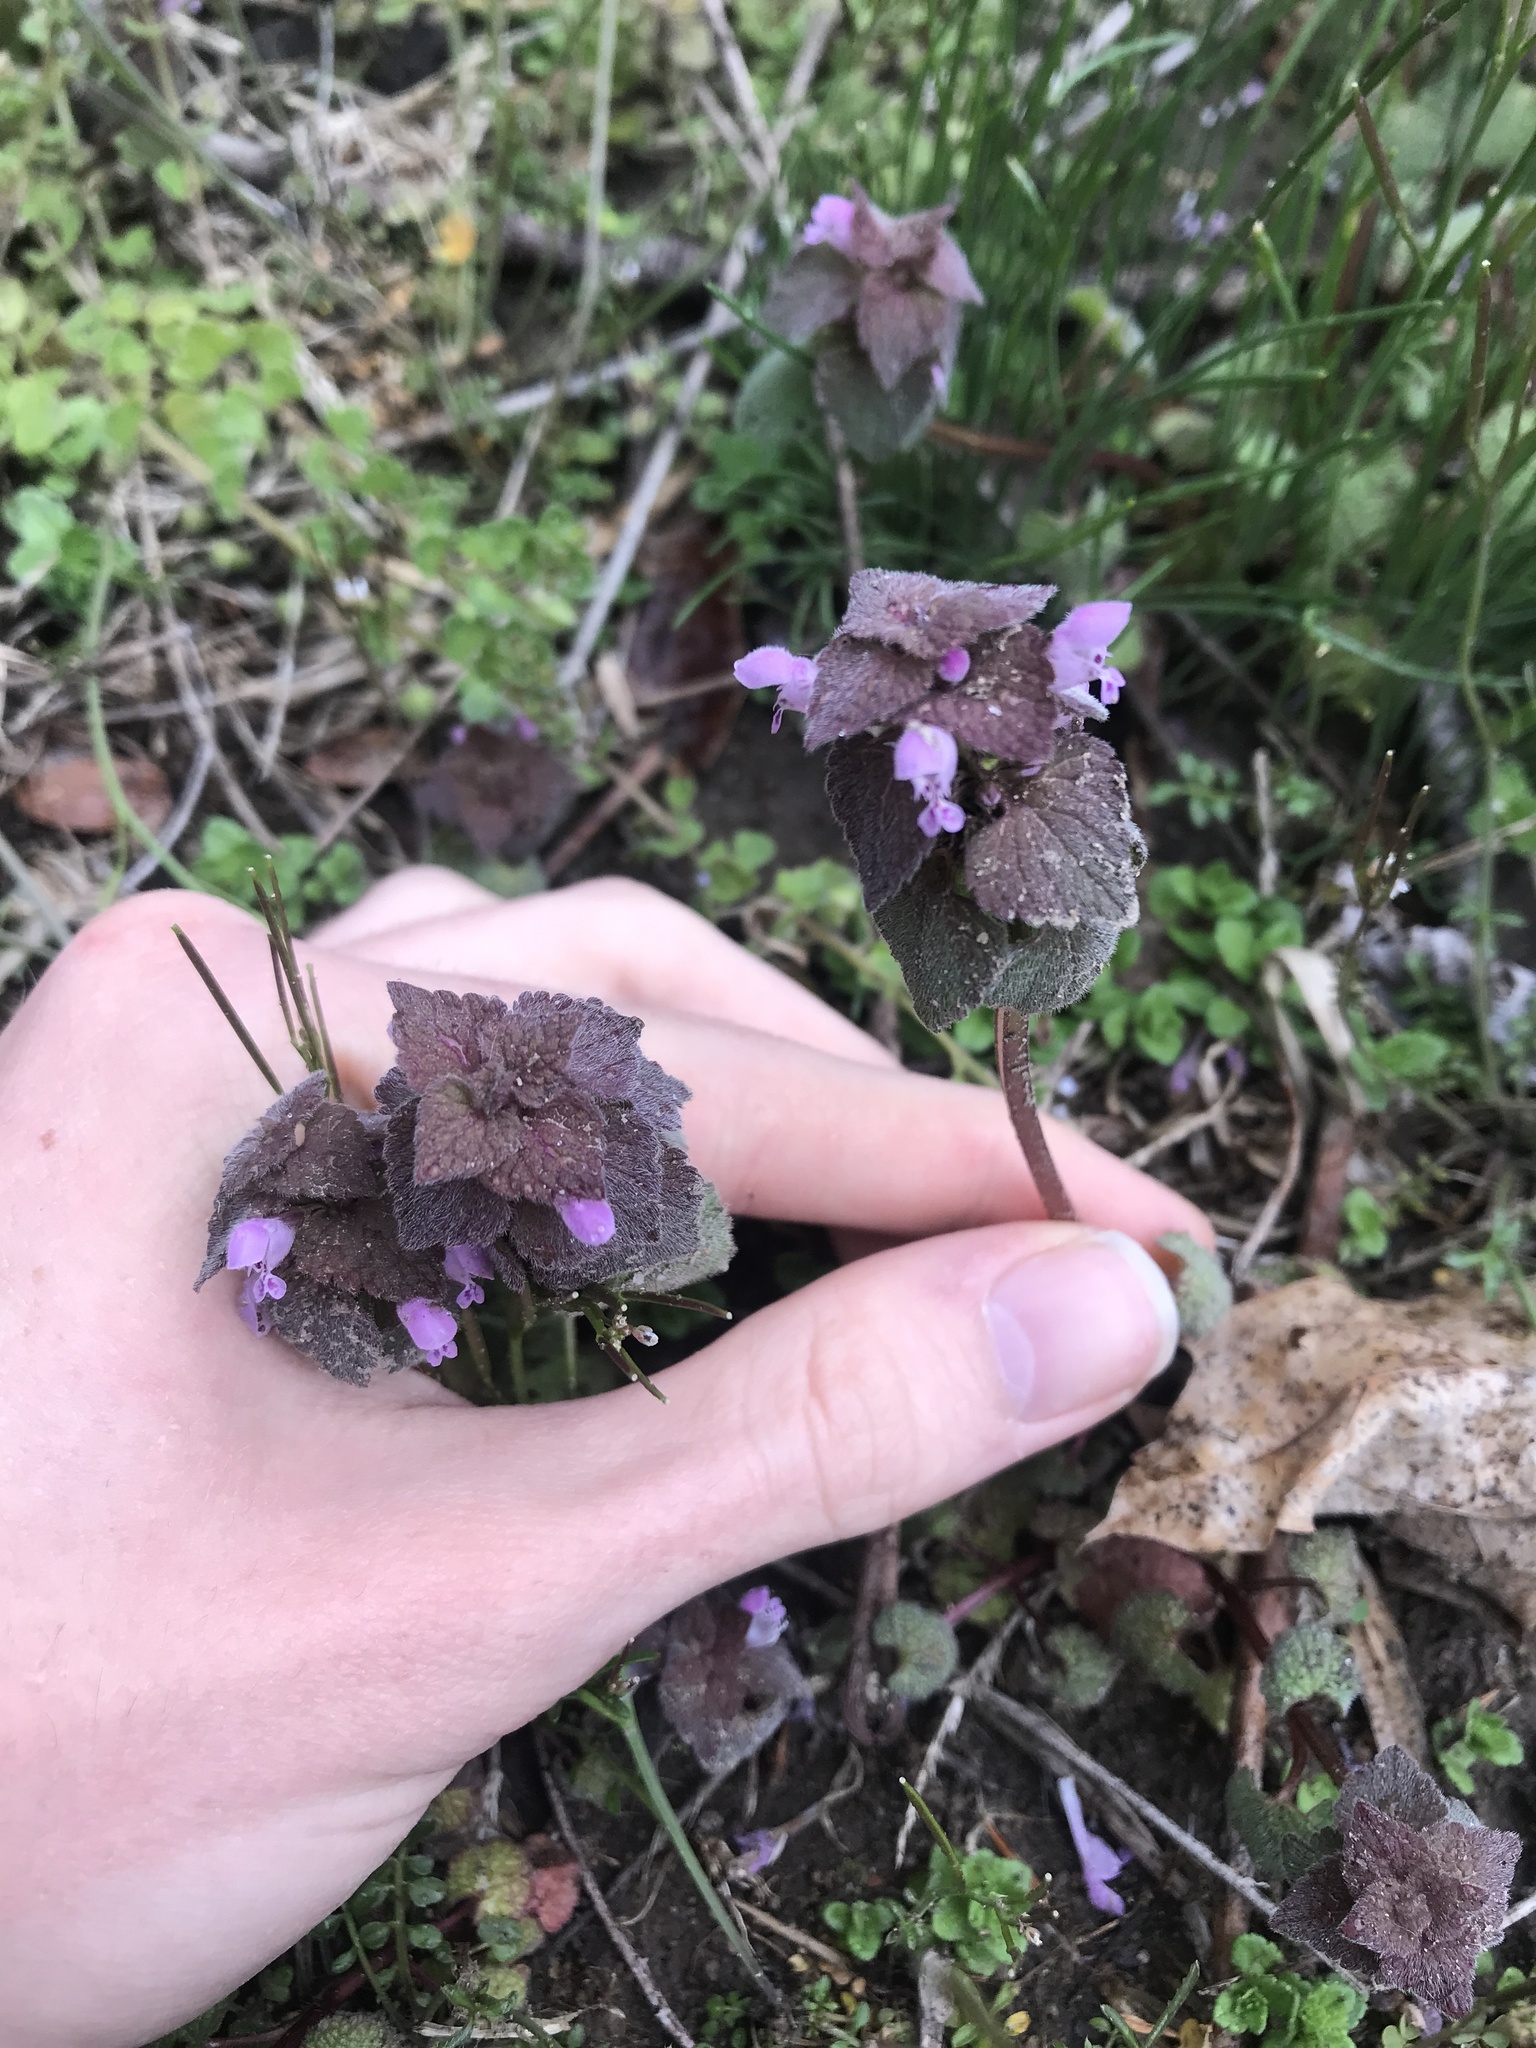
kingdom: Plantae
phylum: Tracheophyta
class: Magnoliopsida
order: Lamiales
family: Lamiaceae
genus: Lamium
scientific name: Lamium purpureum
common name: Red dead-nettle
